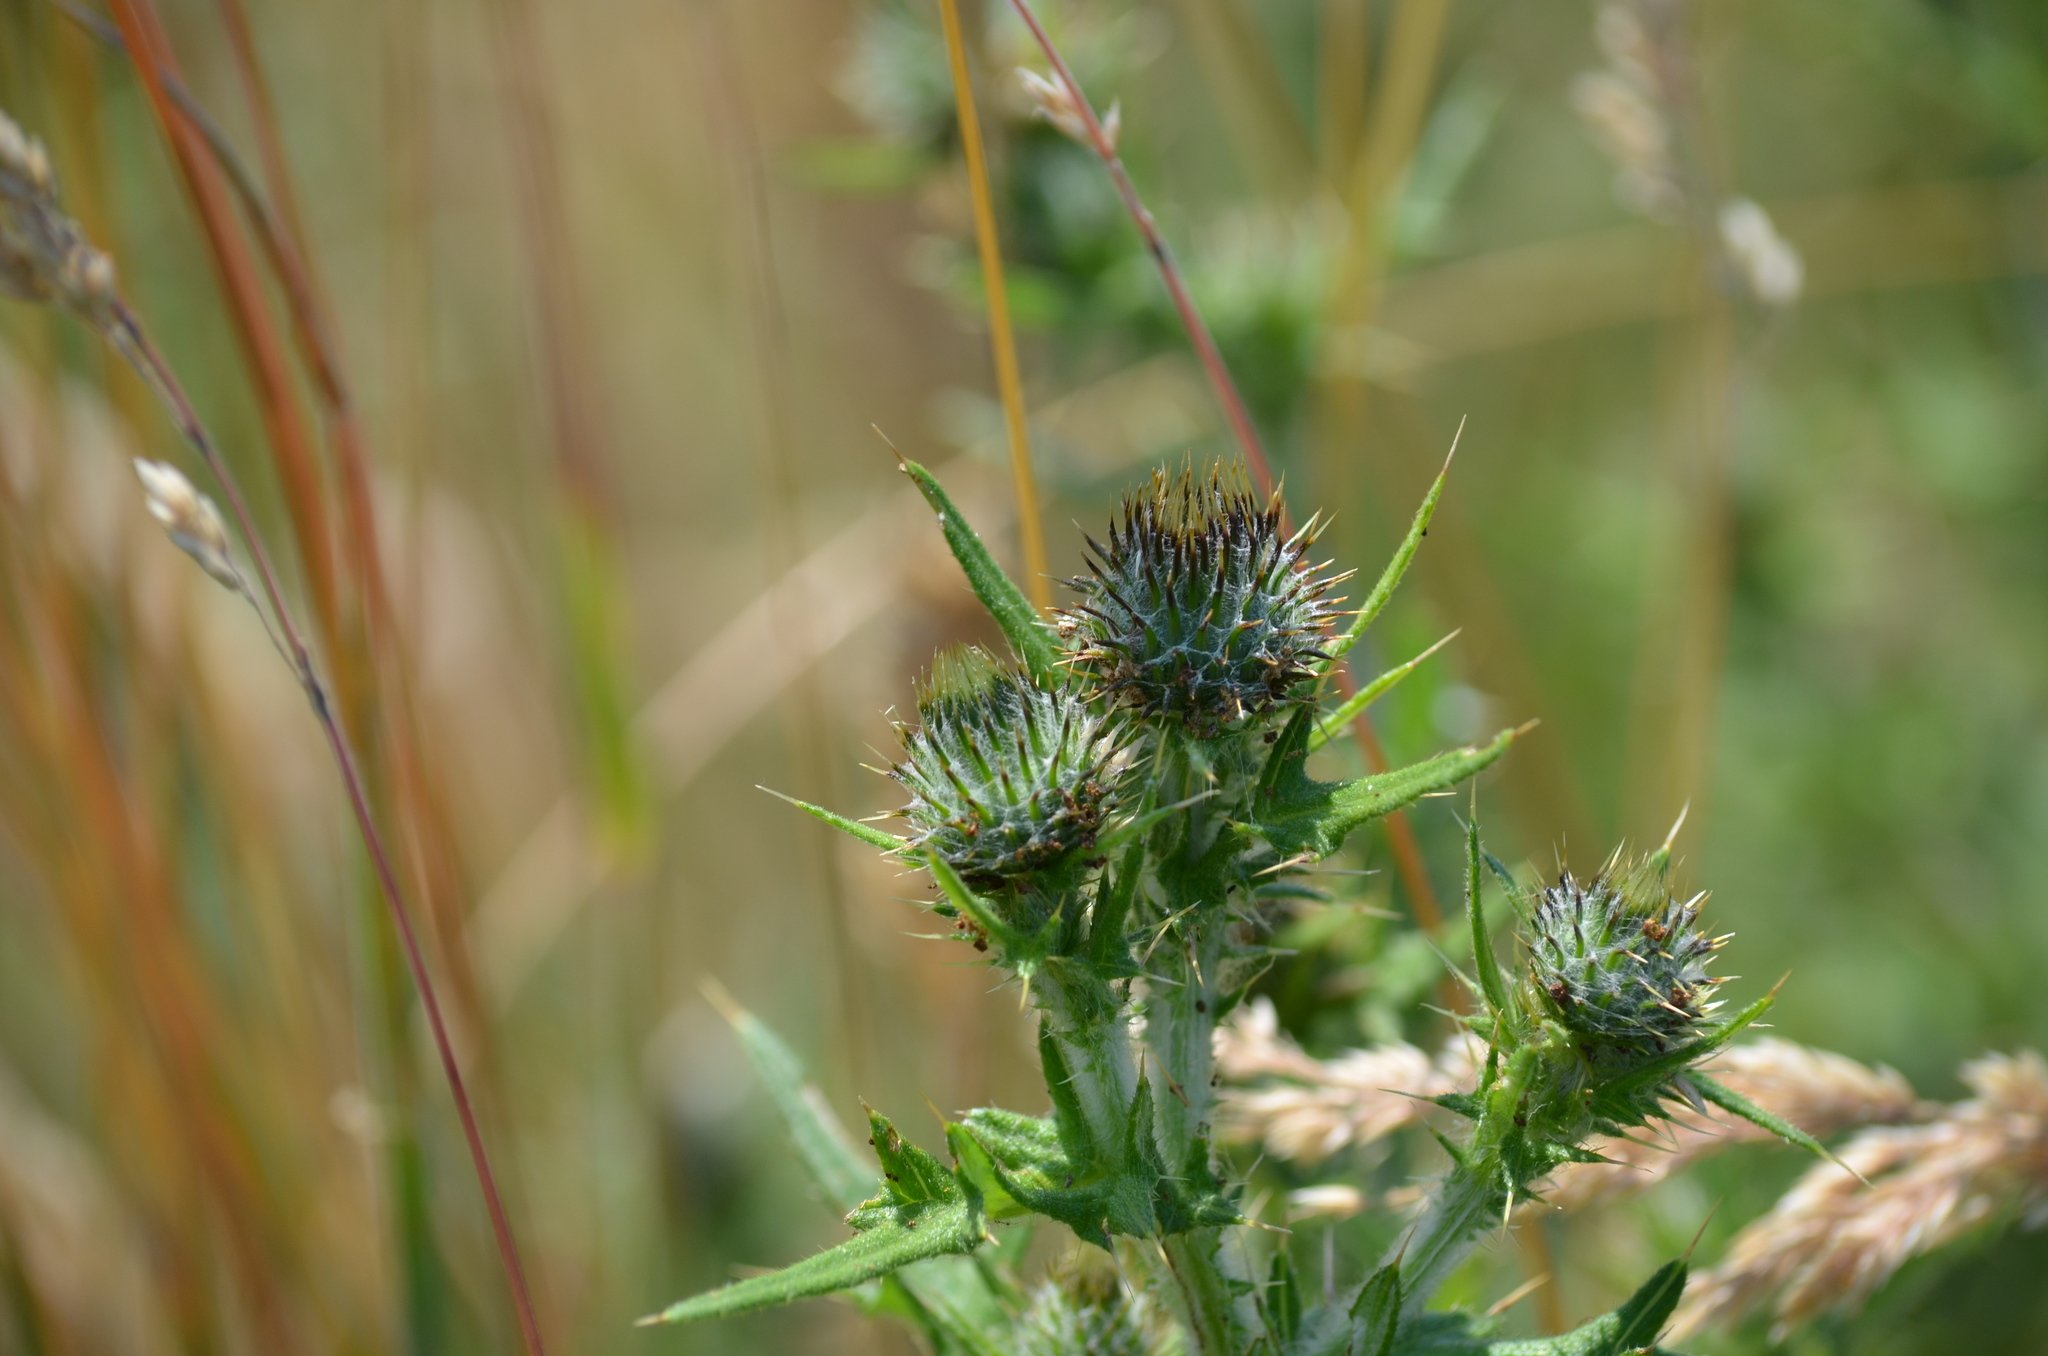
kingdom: Plantae
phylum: Tracheophyta
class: Magnoliopsida
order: Asterales
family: Asteraceae
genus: Cirsium
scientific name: Cirsium vulgare
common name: Bull thistle
